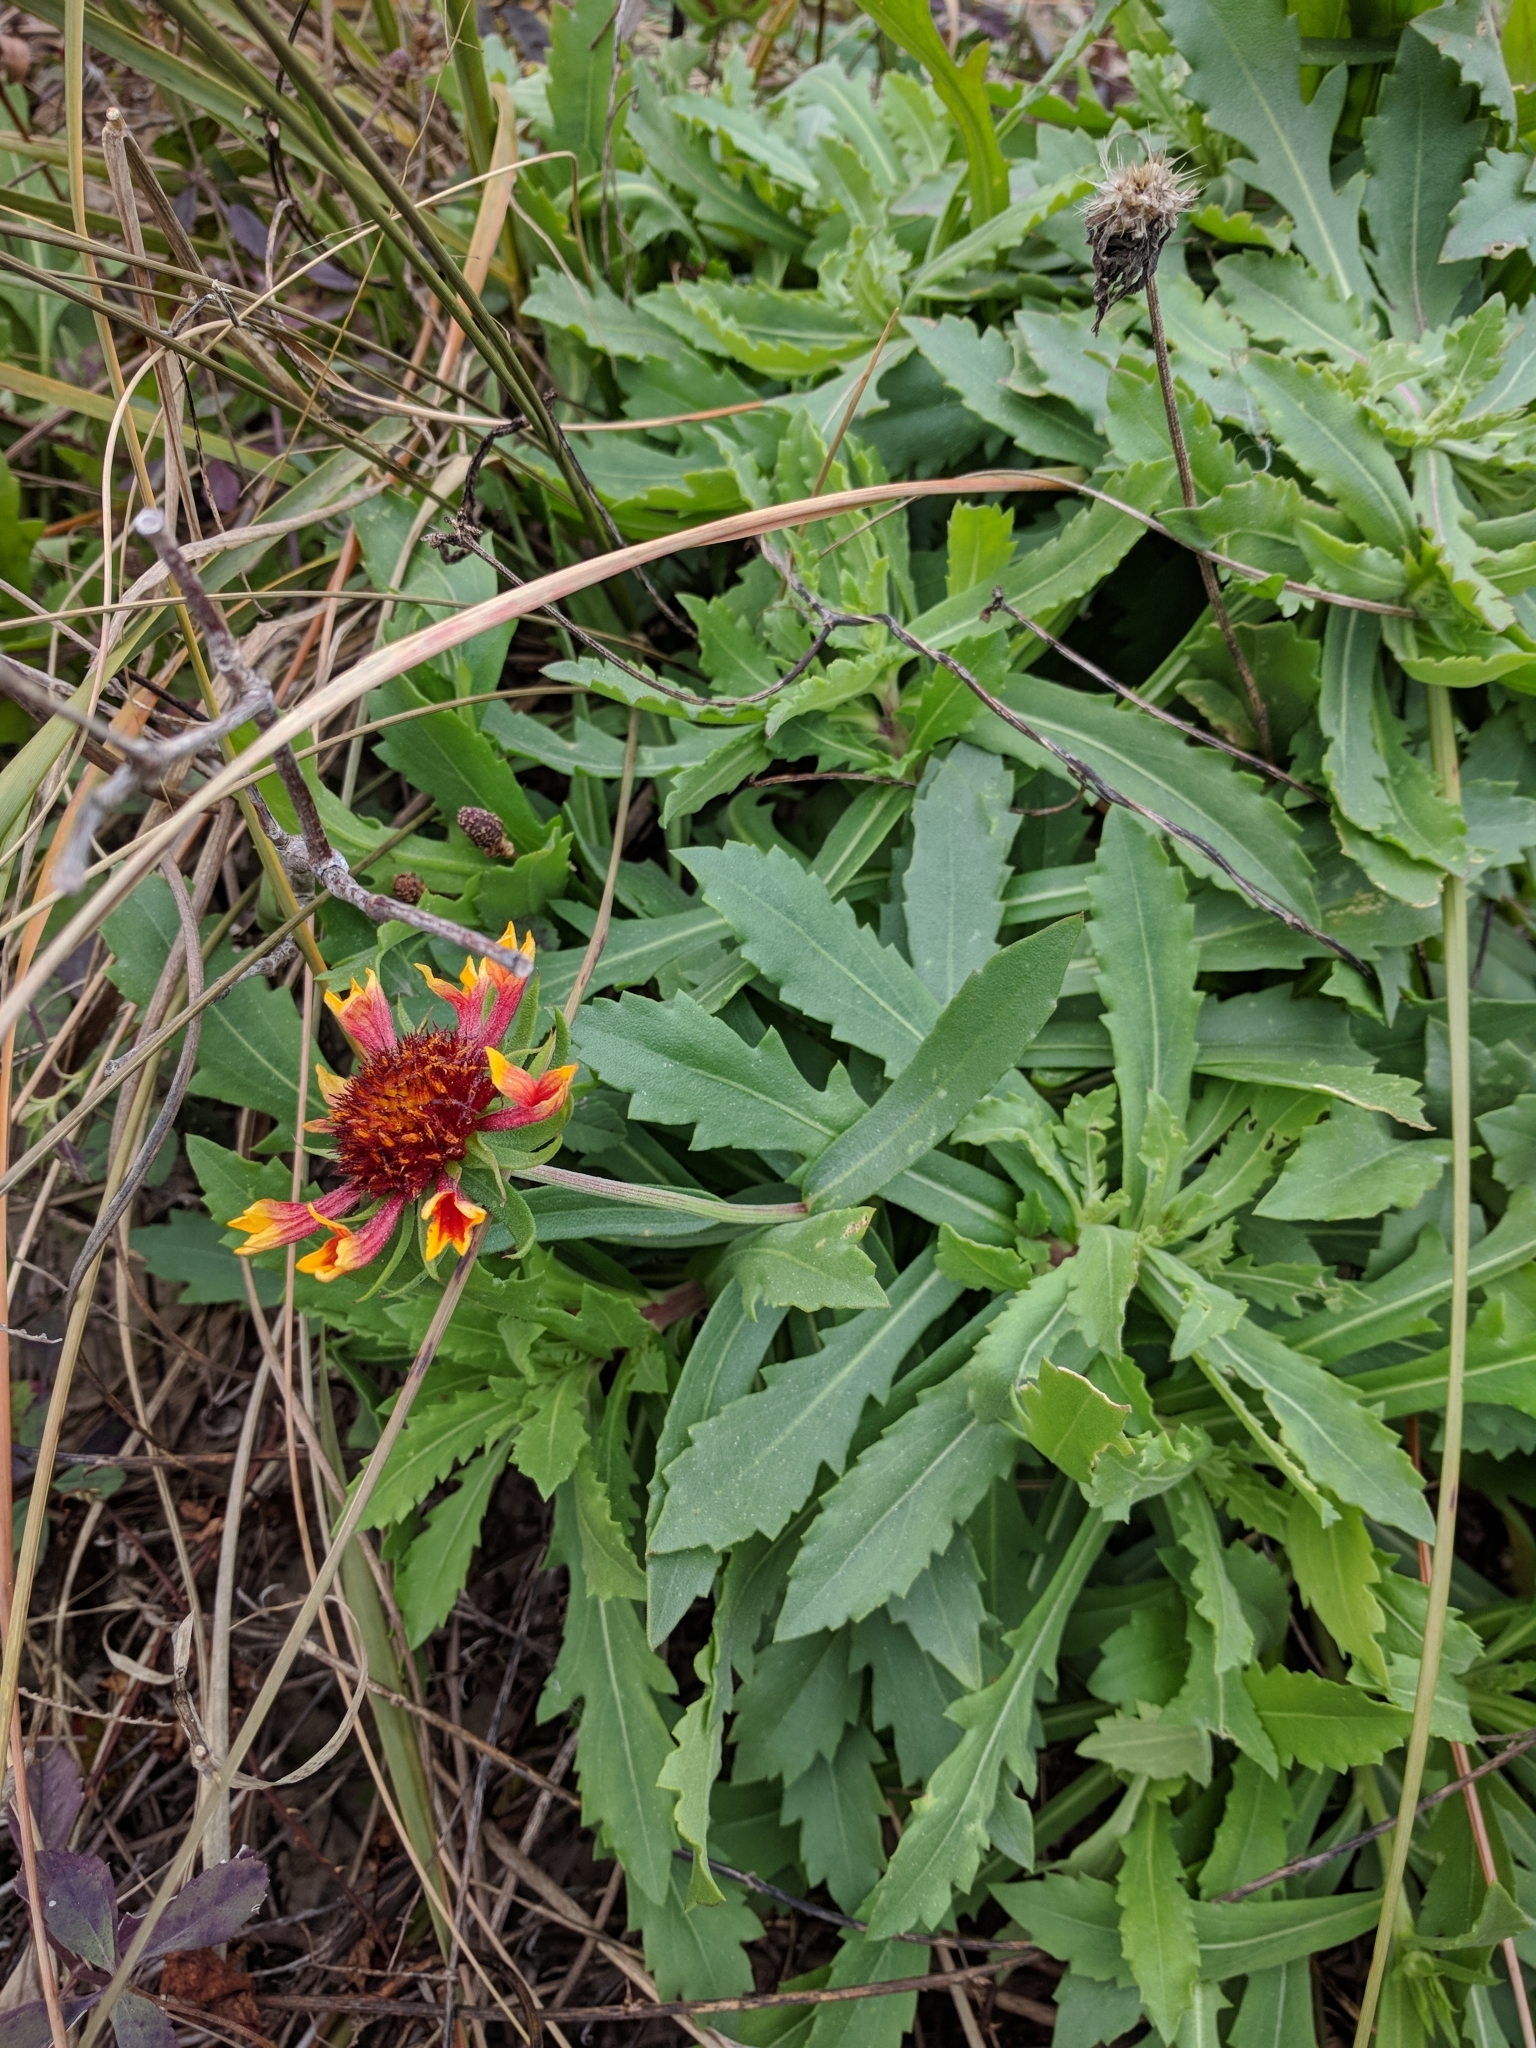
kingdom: Plantae
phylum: Tracheophyta
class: Magnoliopsida
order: Asterales
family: Asteraceae
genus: Gaillardia
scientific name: Gaillardia pulchella
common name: Firewheel
